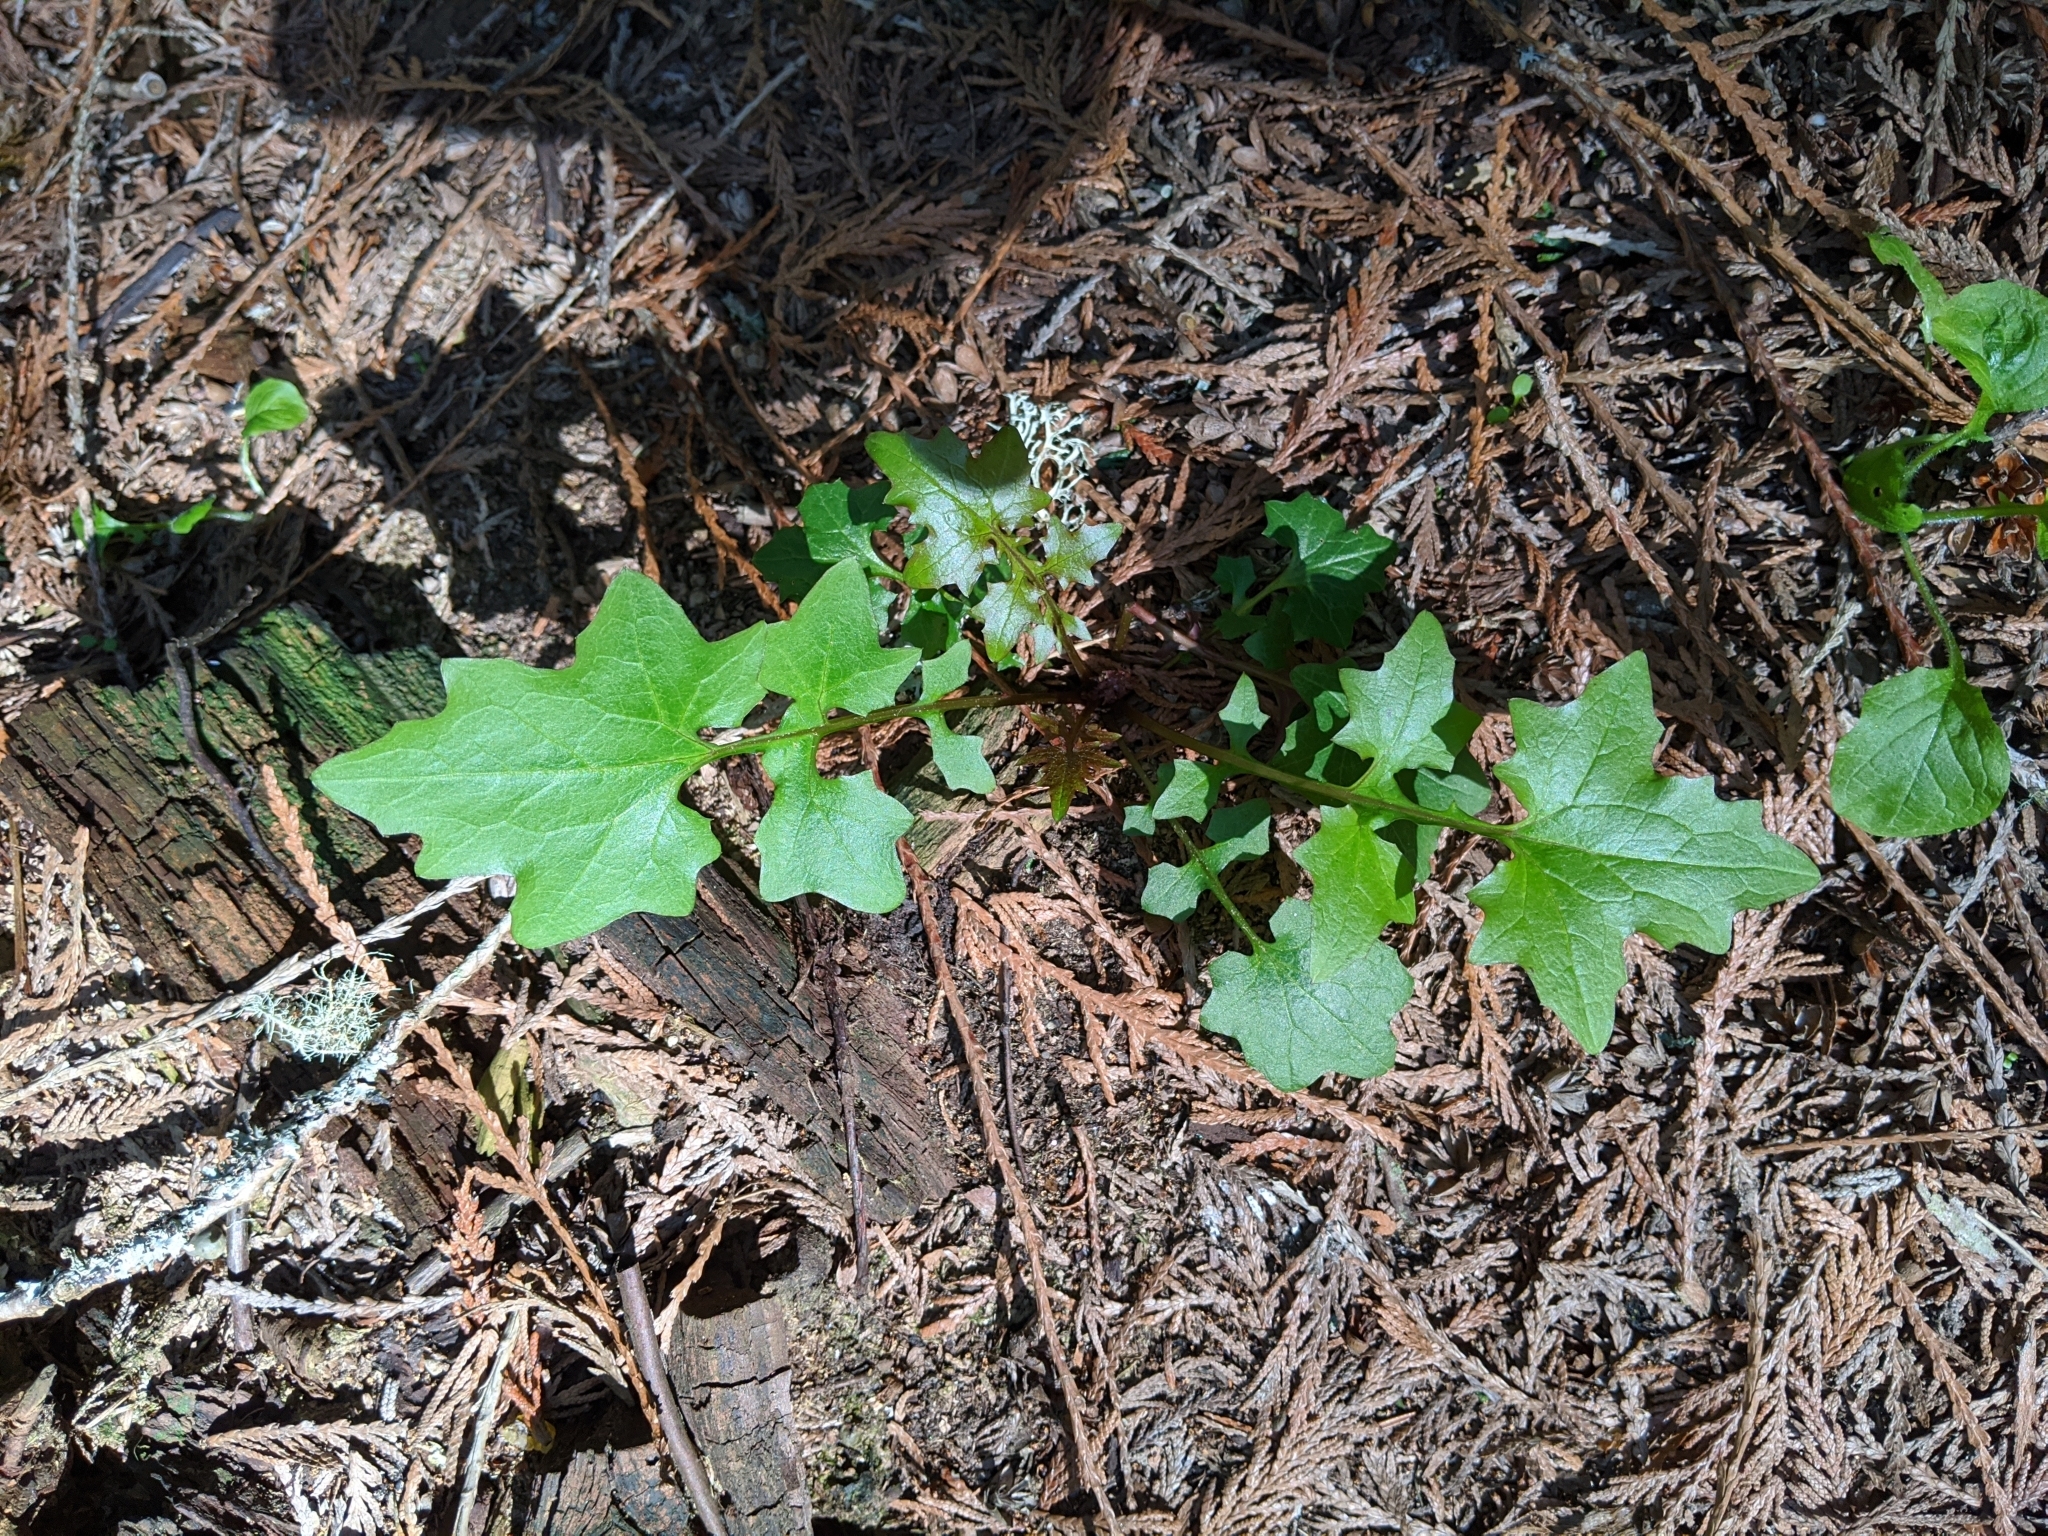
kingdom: Plantae
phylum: Tracheophyta
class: Magnoliopsida
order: Asterales
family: Asteraceae
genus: Mycelis
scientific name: Mycelis muralis
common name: Wall lettuce
